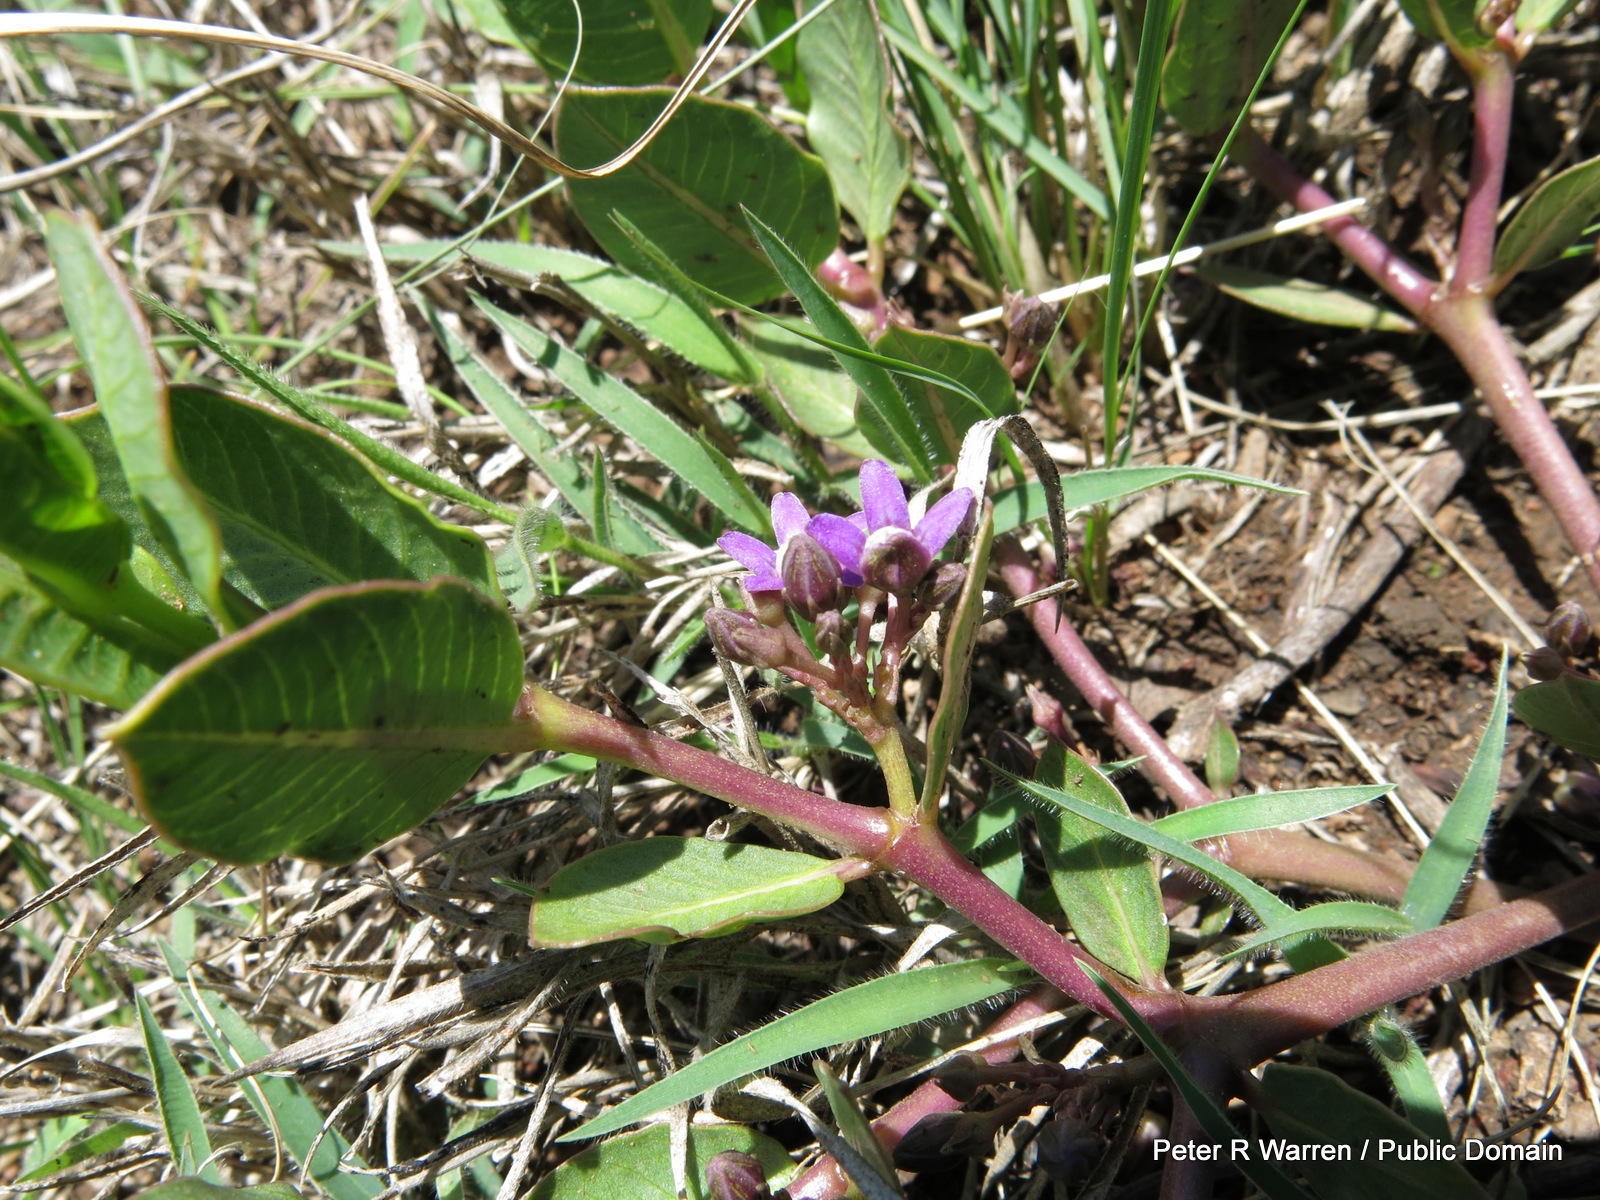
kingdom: Plantae
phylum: Tracheophyta
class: Magnoliopsida
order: Gentianales
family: Apocynaceae
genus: Raphionacme
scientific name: Raphionacme hirsuta
